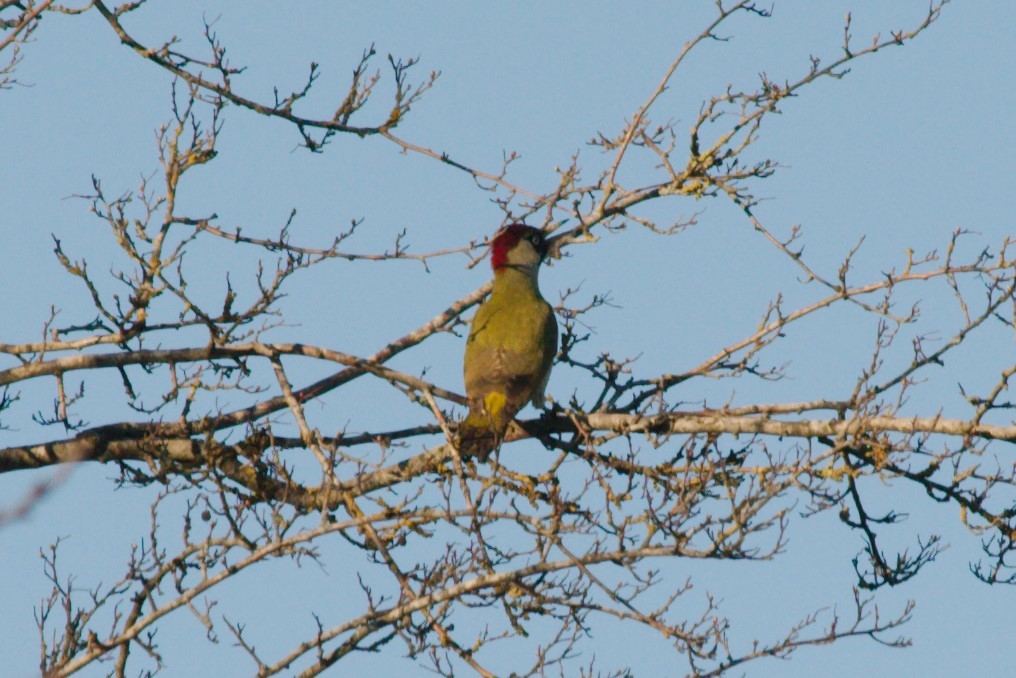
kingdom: Animalia
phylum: Chordata
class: Aves
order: Piciformes
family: Picidae
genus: Picus
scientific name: Picus viridis
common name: European green woodpecker
